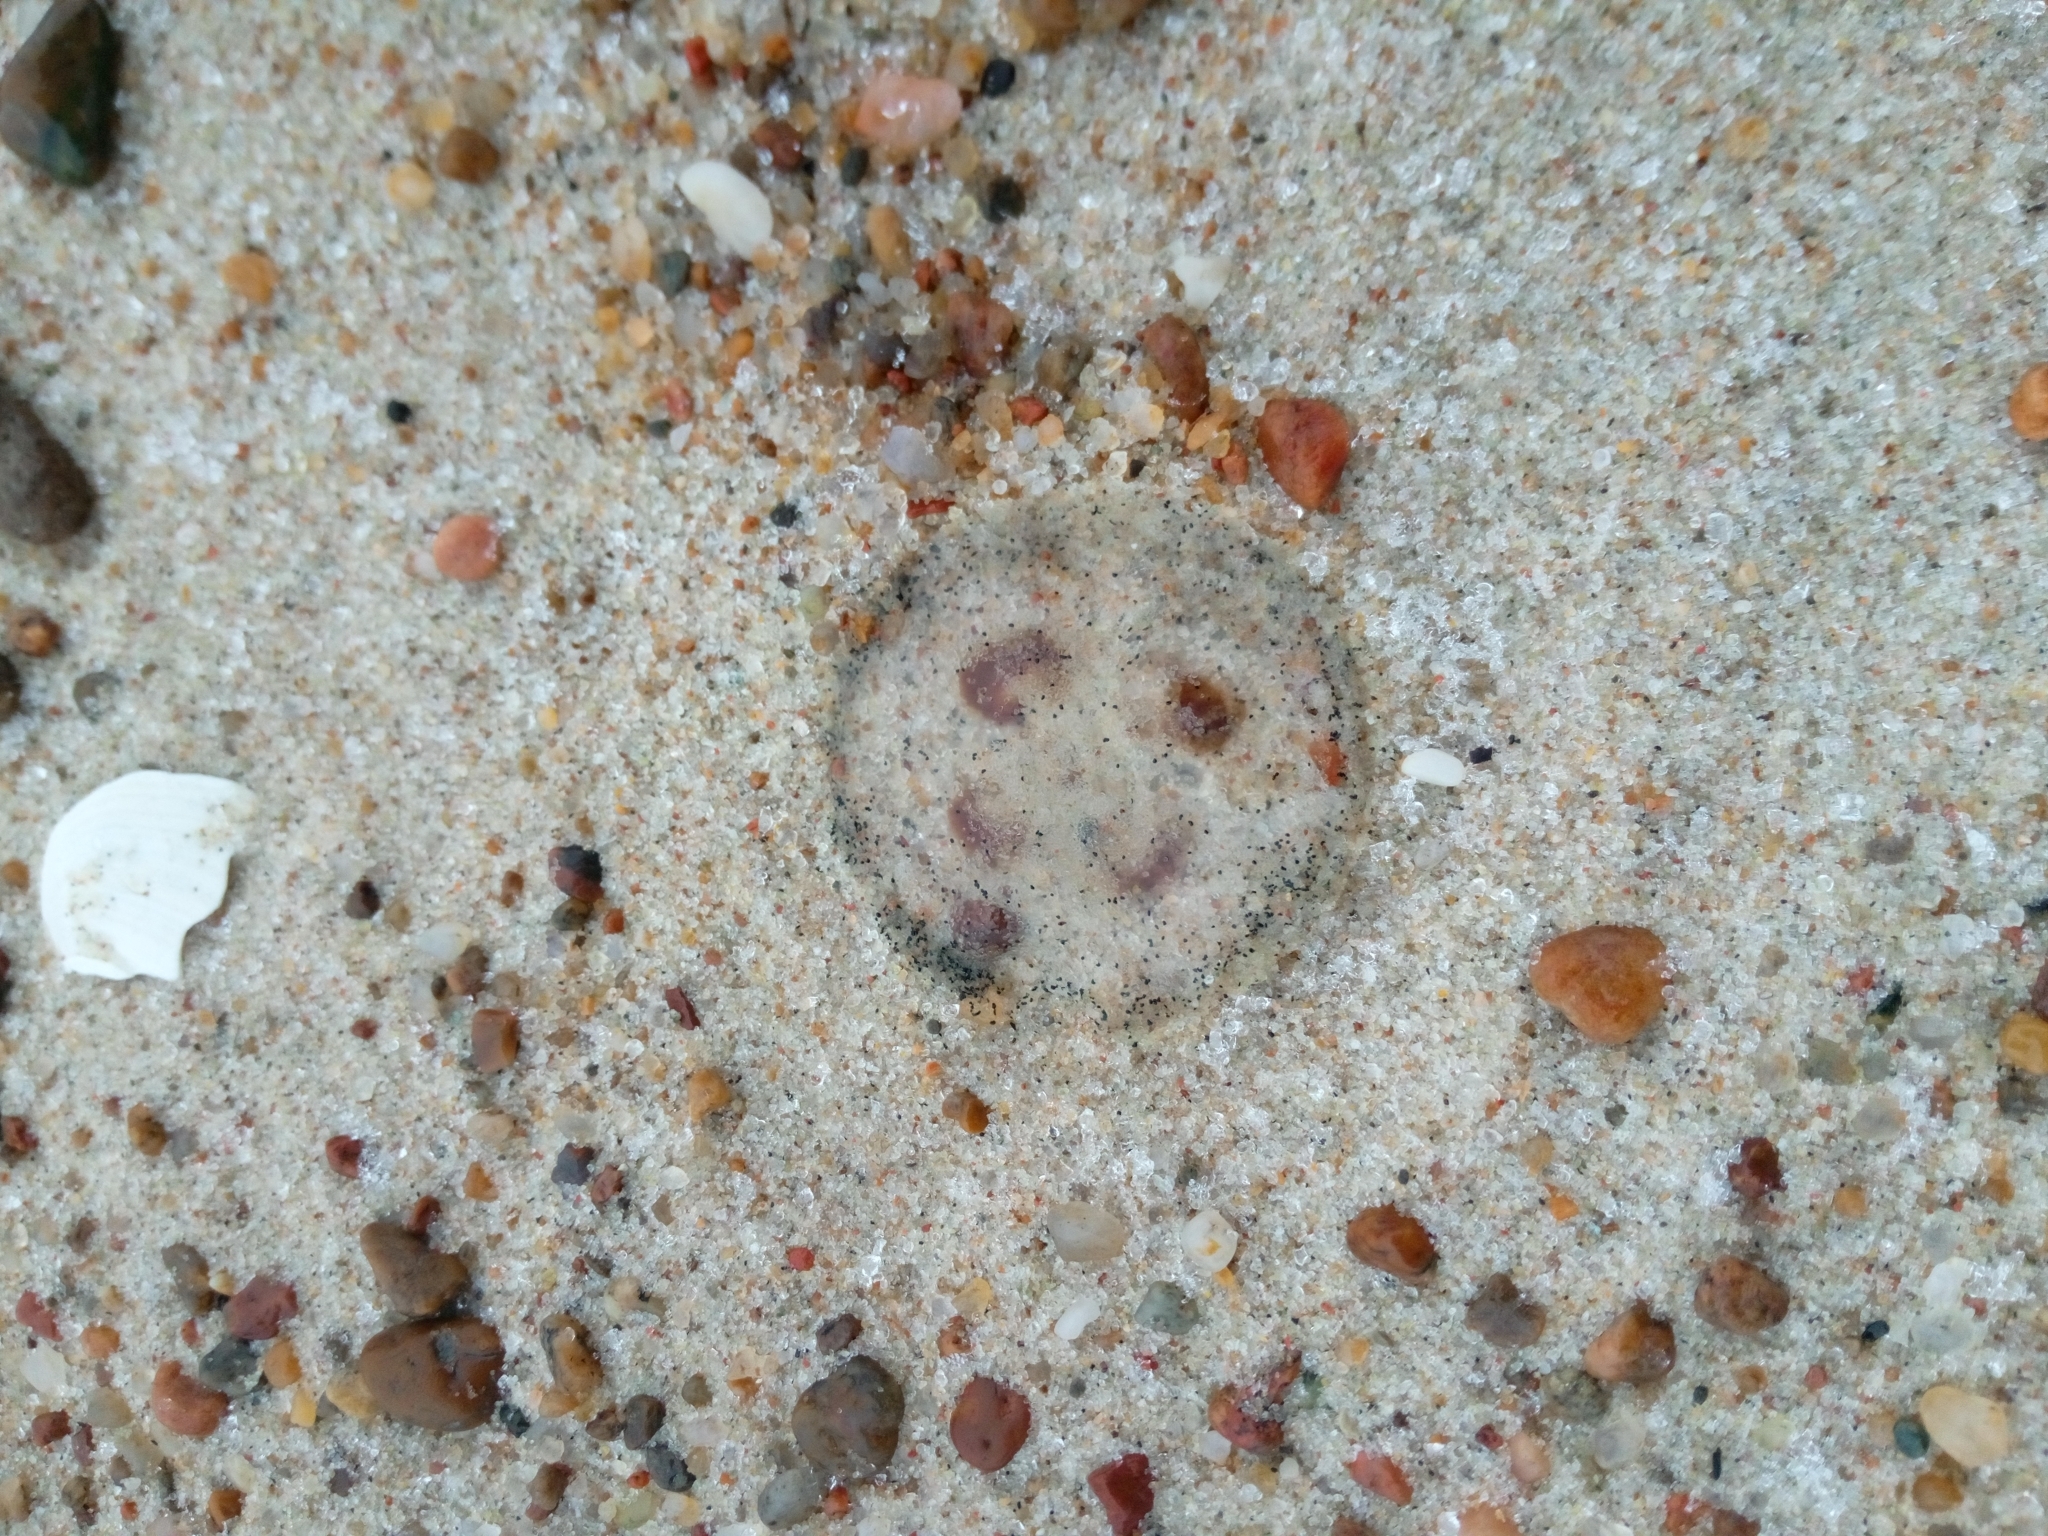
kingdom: Animalia
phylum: Cnidaria
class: Scyphozoa
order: Semaeostomeae
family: Ulmaridae
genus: Aurelia
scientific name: Aurelia aurita
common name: Moon jellyfish
